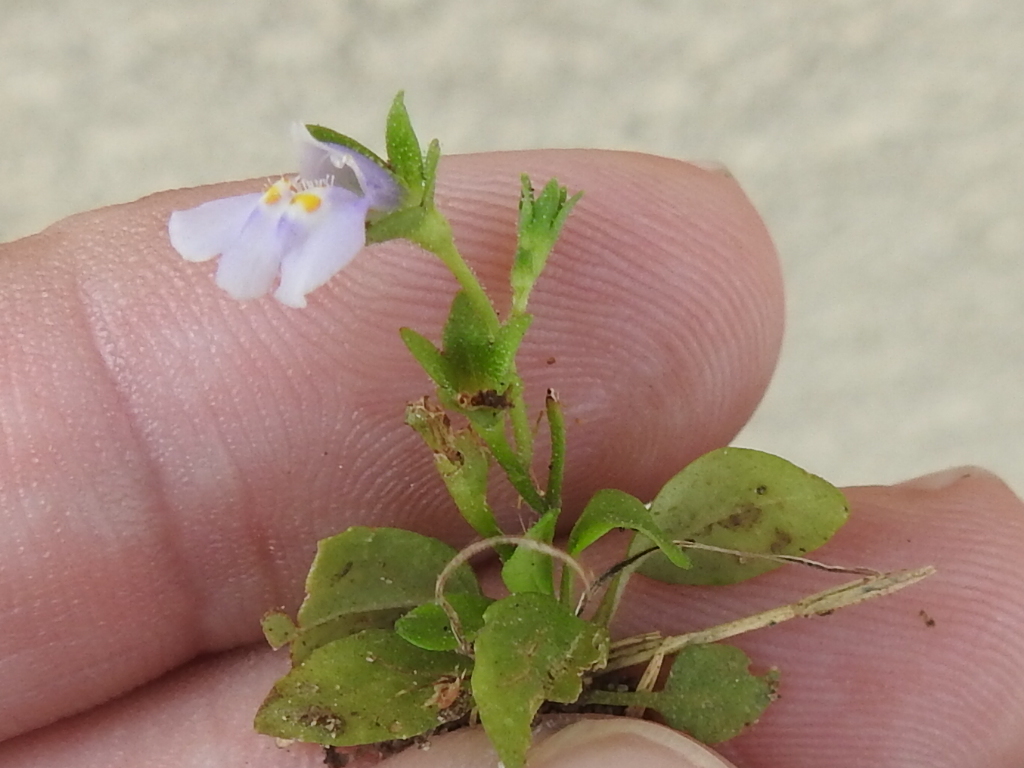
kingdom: Plantae
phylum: Tracheophyta
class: Magnoliopsida
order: Lamiales
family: Mazaceae
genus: Mazus
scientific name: Mazus pumilus
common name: Japanese mazus
